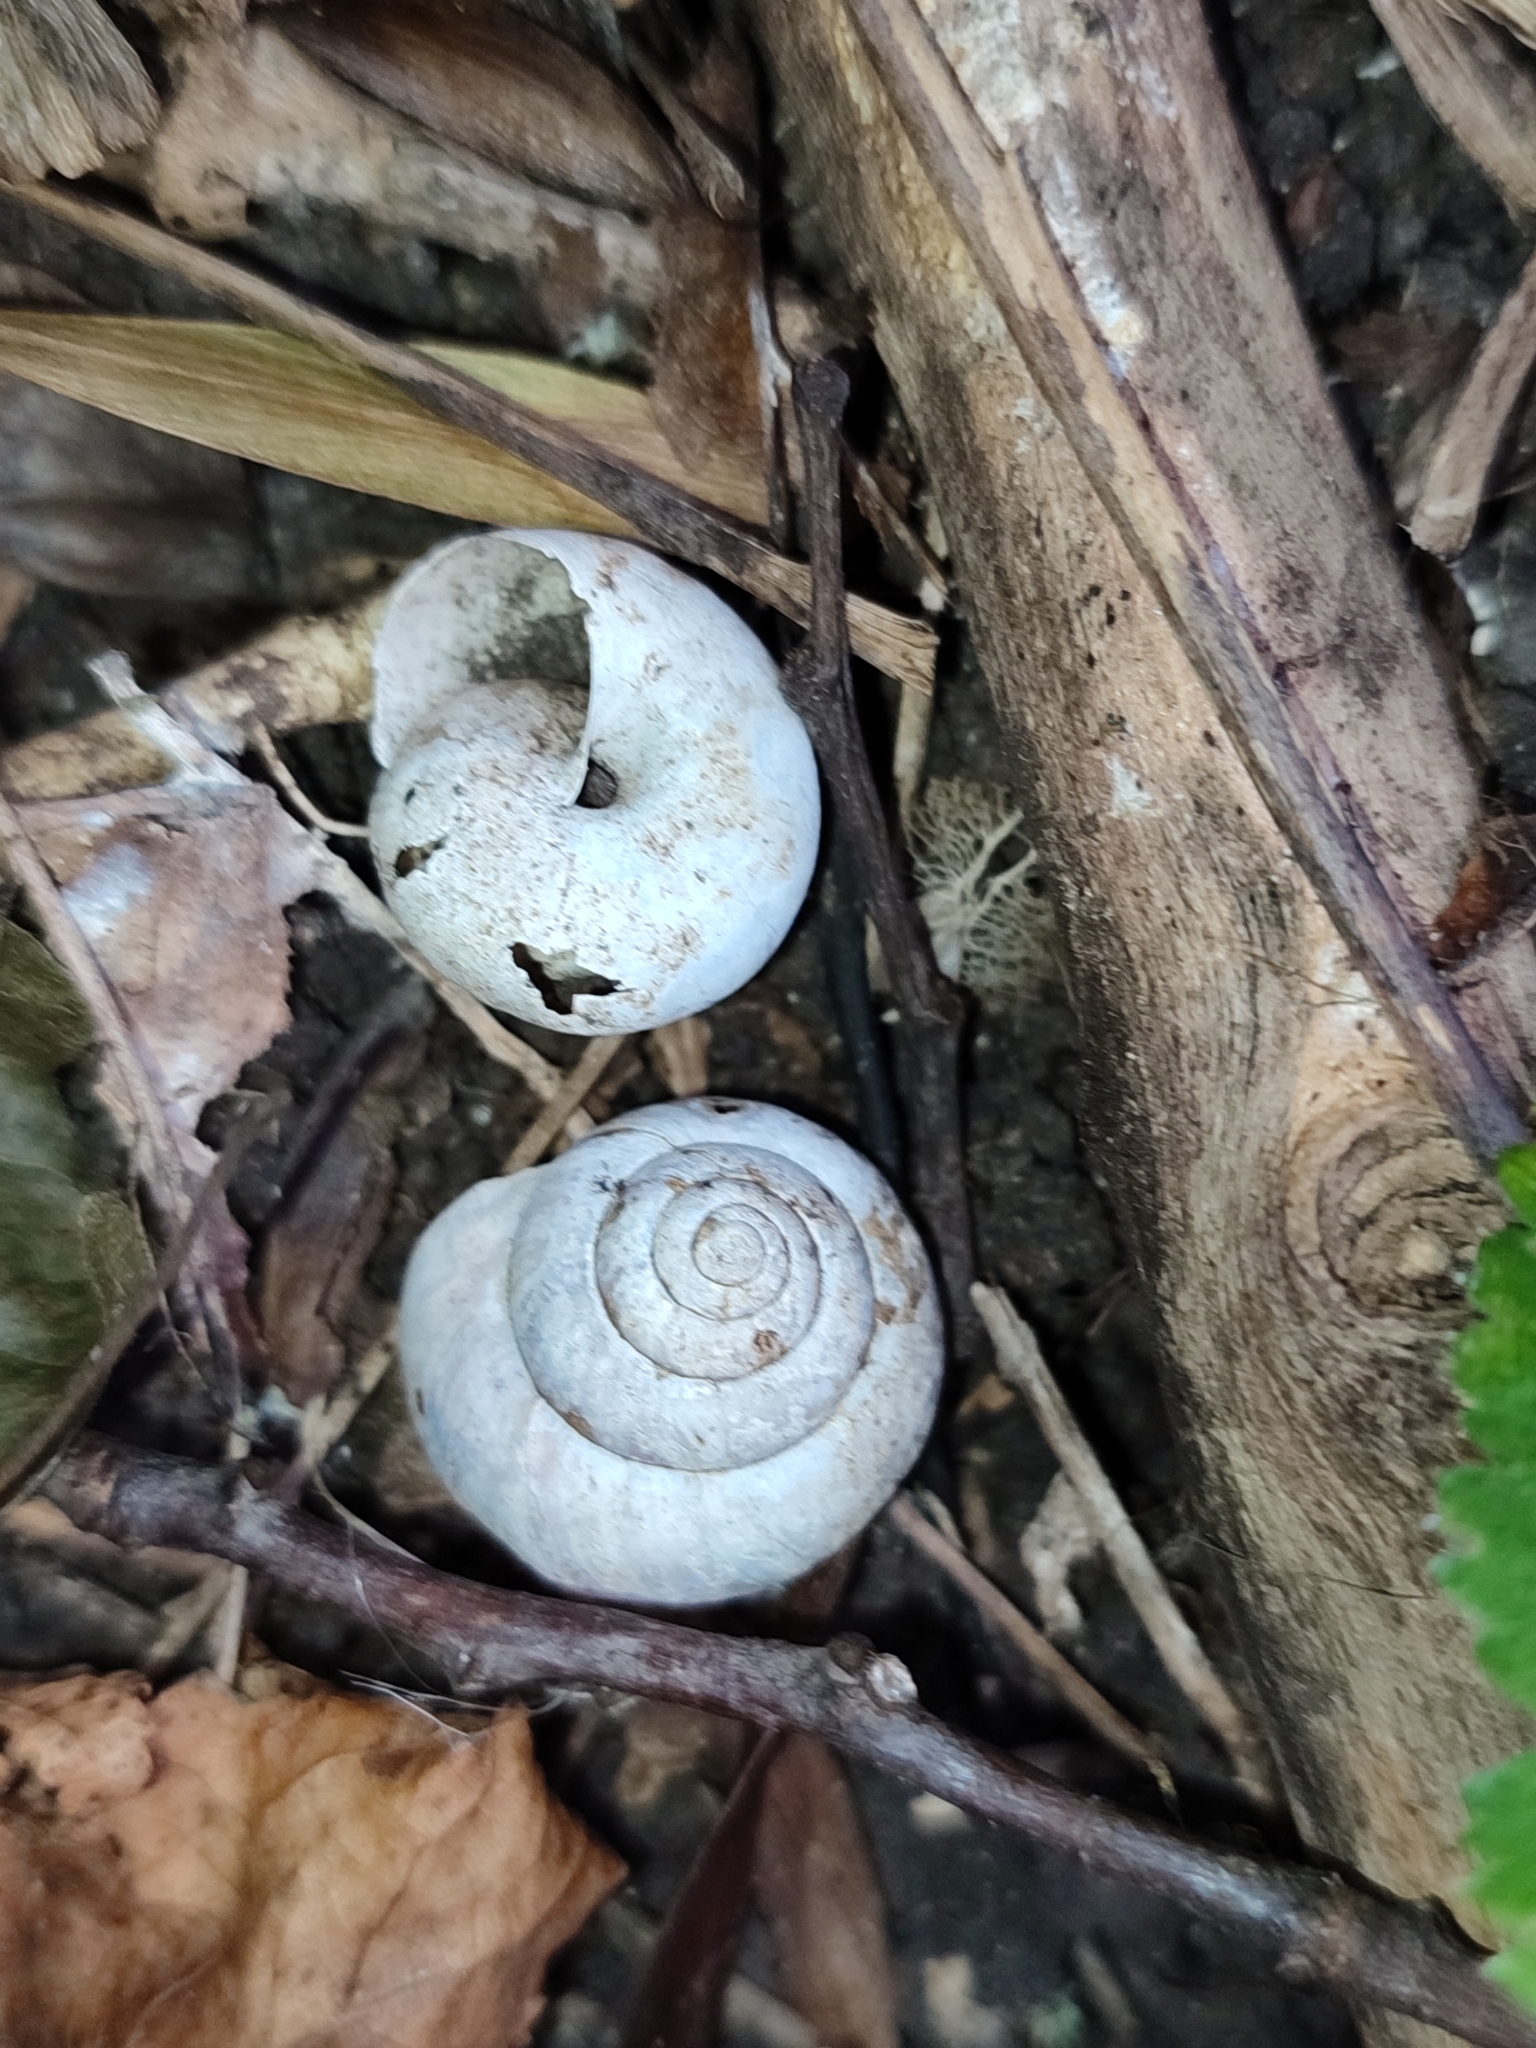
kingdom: Animalia
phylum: Mollusca
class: Gastropoda
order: Stylommatophora
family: Camaenidae
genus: Fruticicola
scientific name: Fruticicola fruticum
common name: Bush snail
